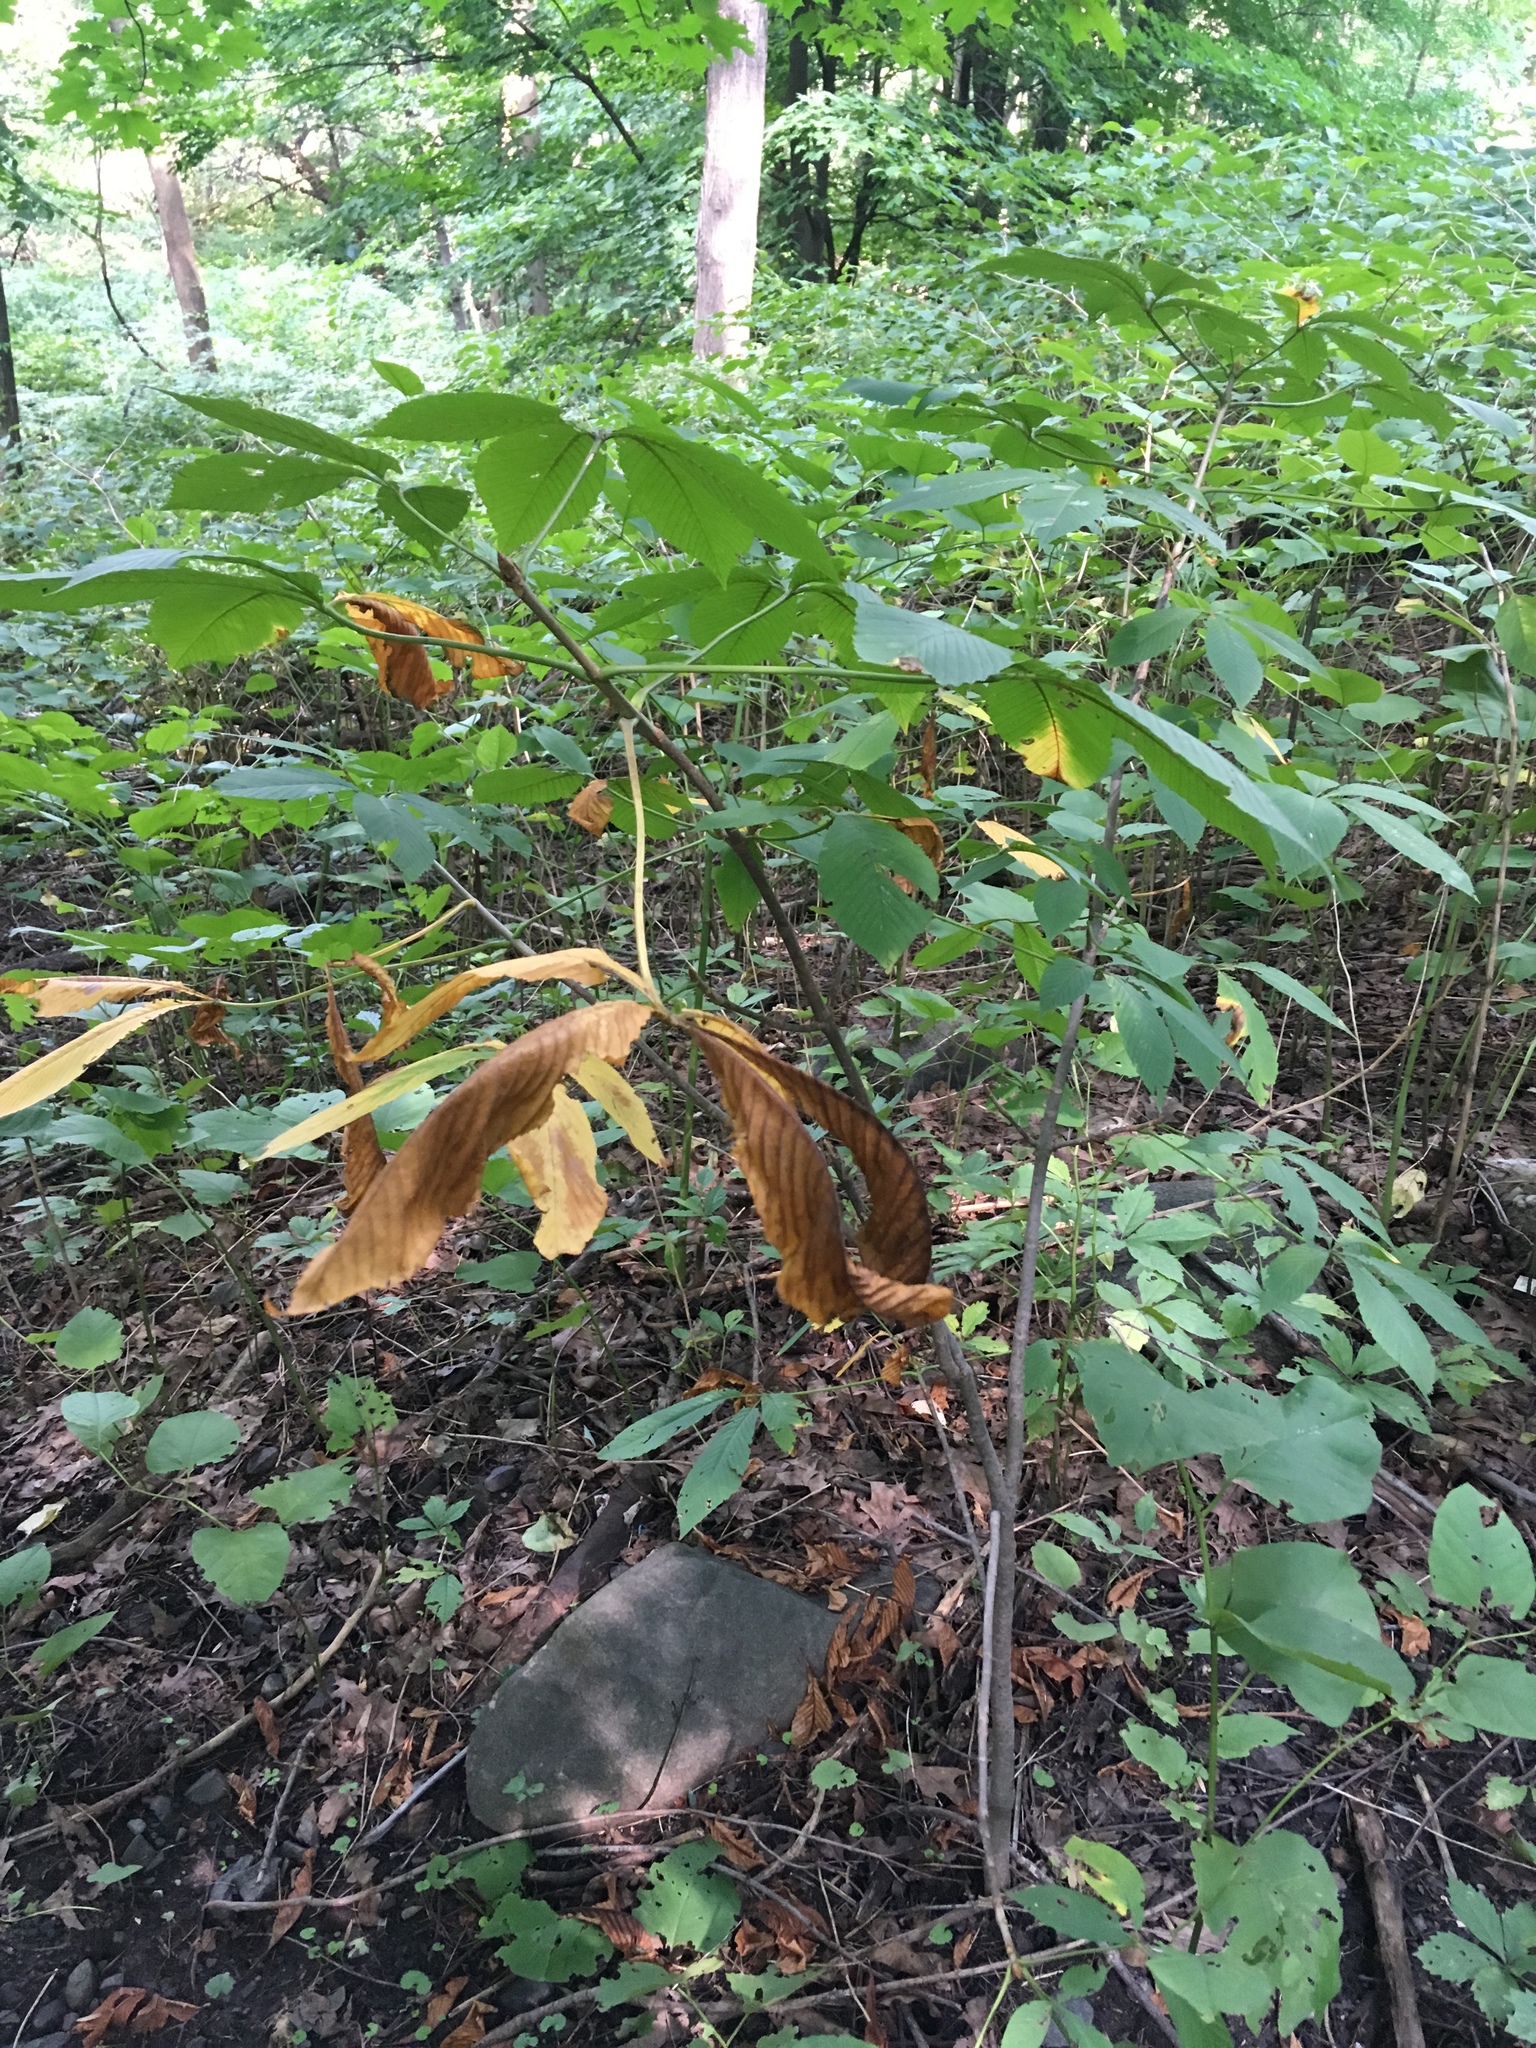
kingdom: Plantae
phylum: Tracheophyta
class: Magnoliopsida
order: Sapindales
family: Sapindaceae
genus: Aesculus
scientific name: Aesculus flava
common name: Yellow buckeye
